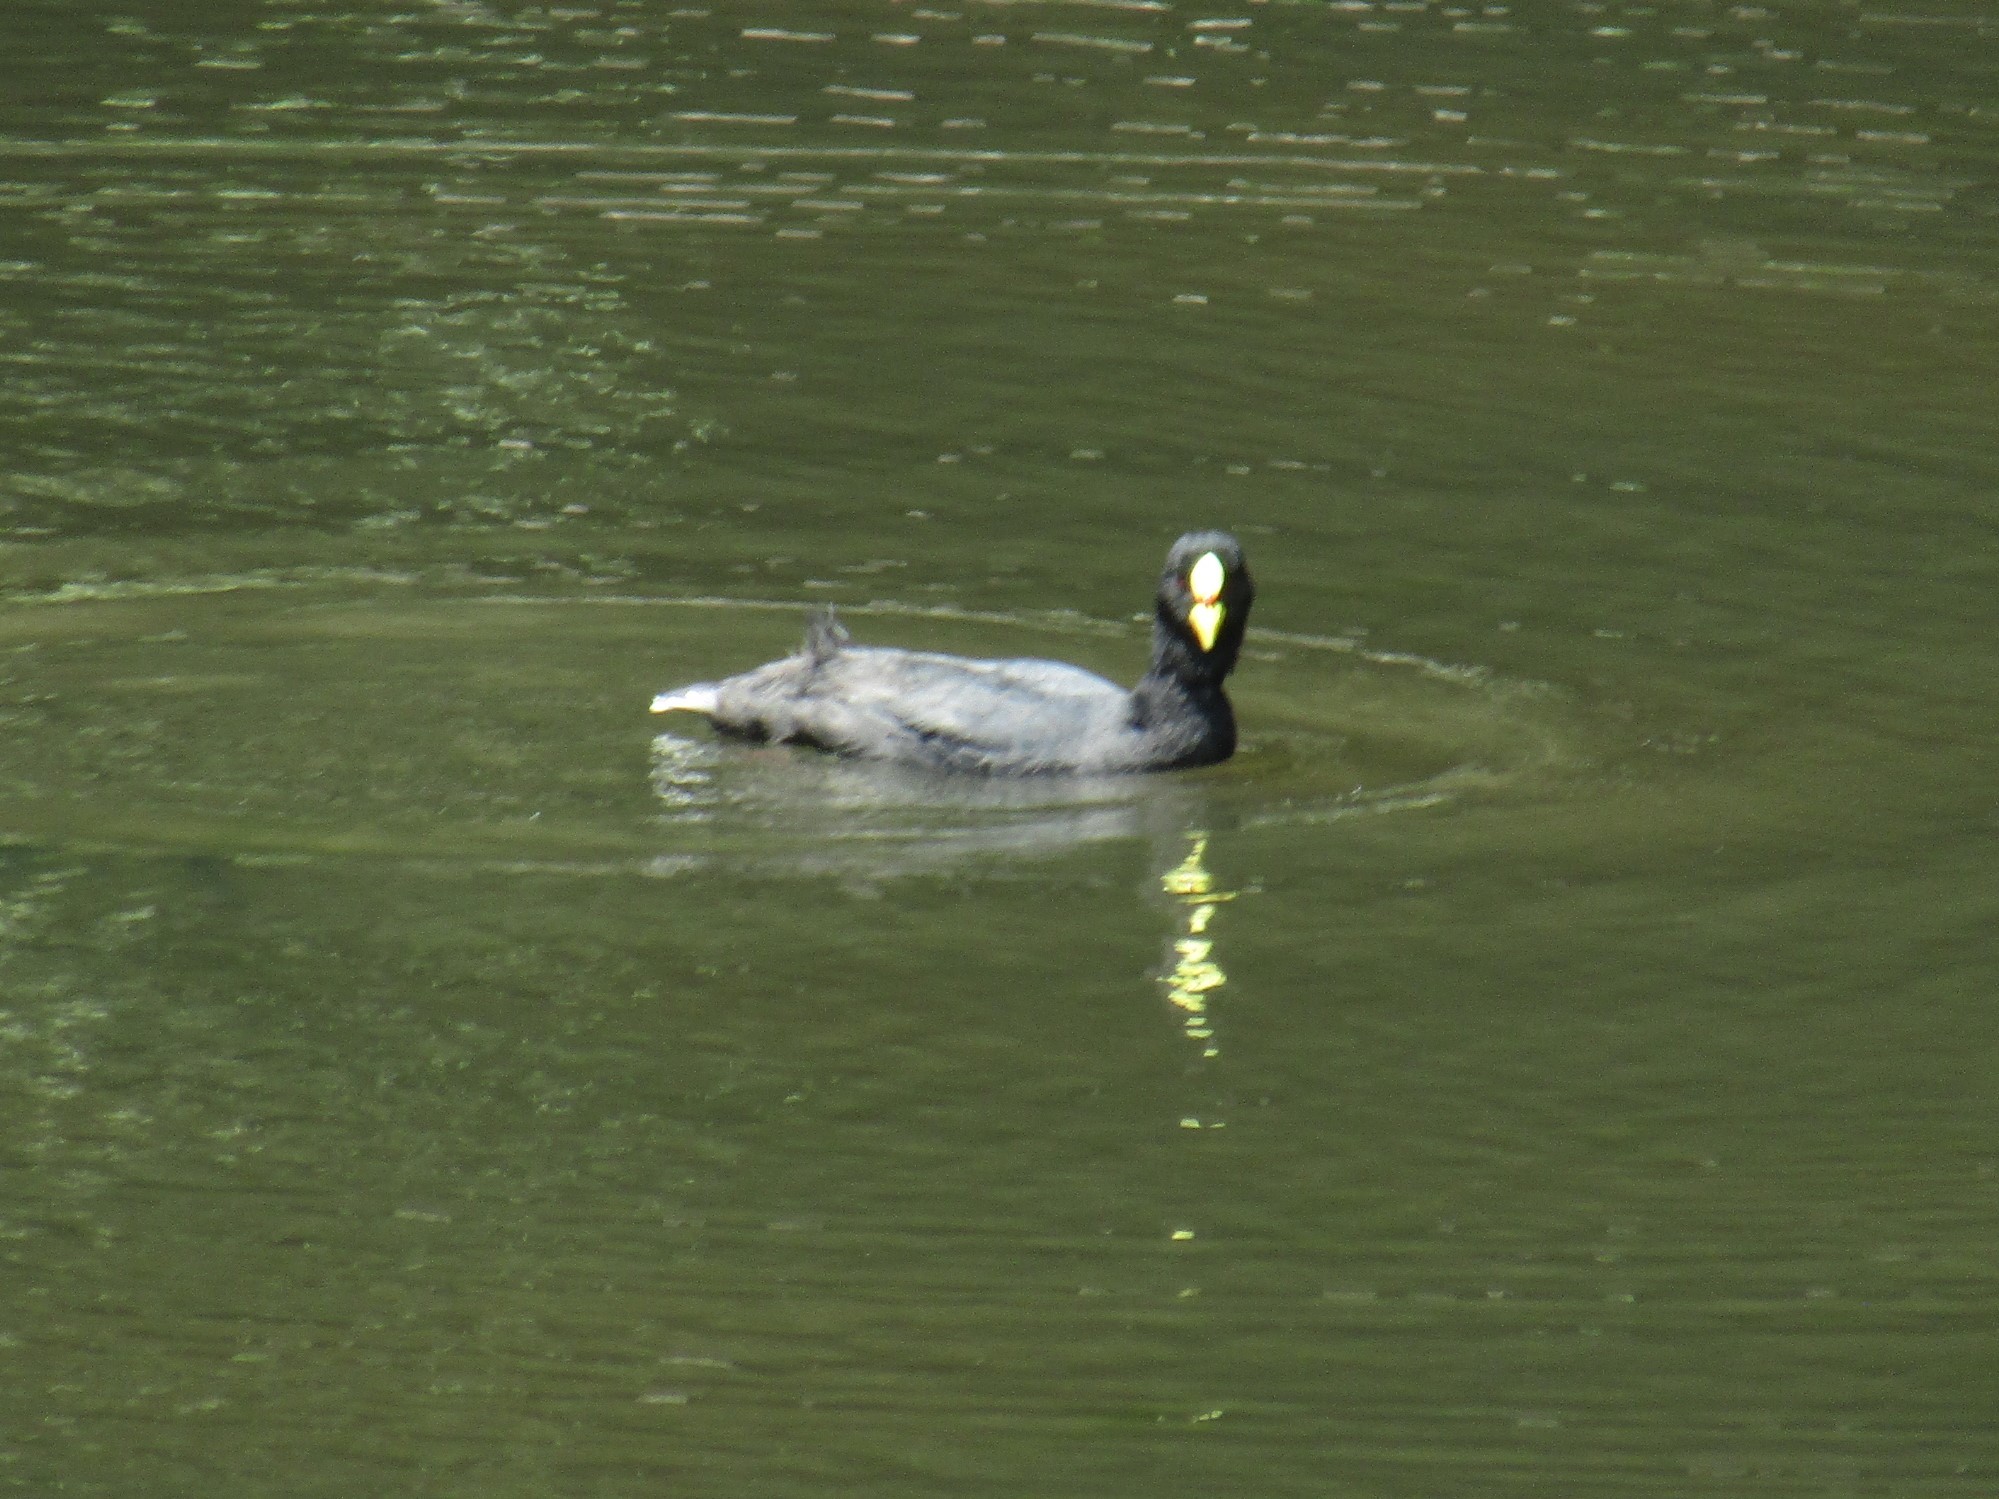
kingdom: Animalia
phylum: Chordata
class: Aves
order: Gruiformes
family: Rallidae
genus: Fulica
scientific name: Fulica armillata
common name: Red-gartered coot
